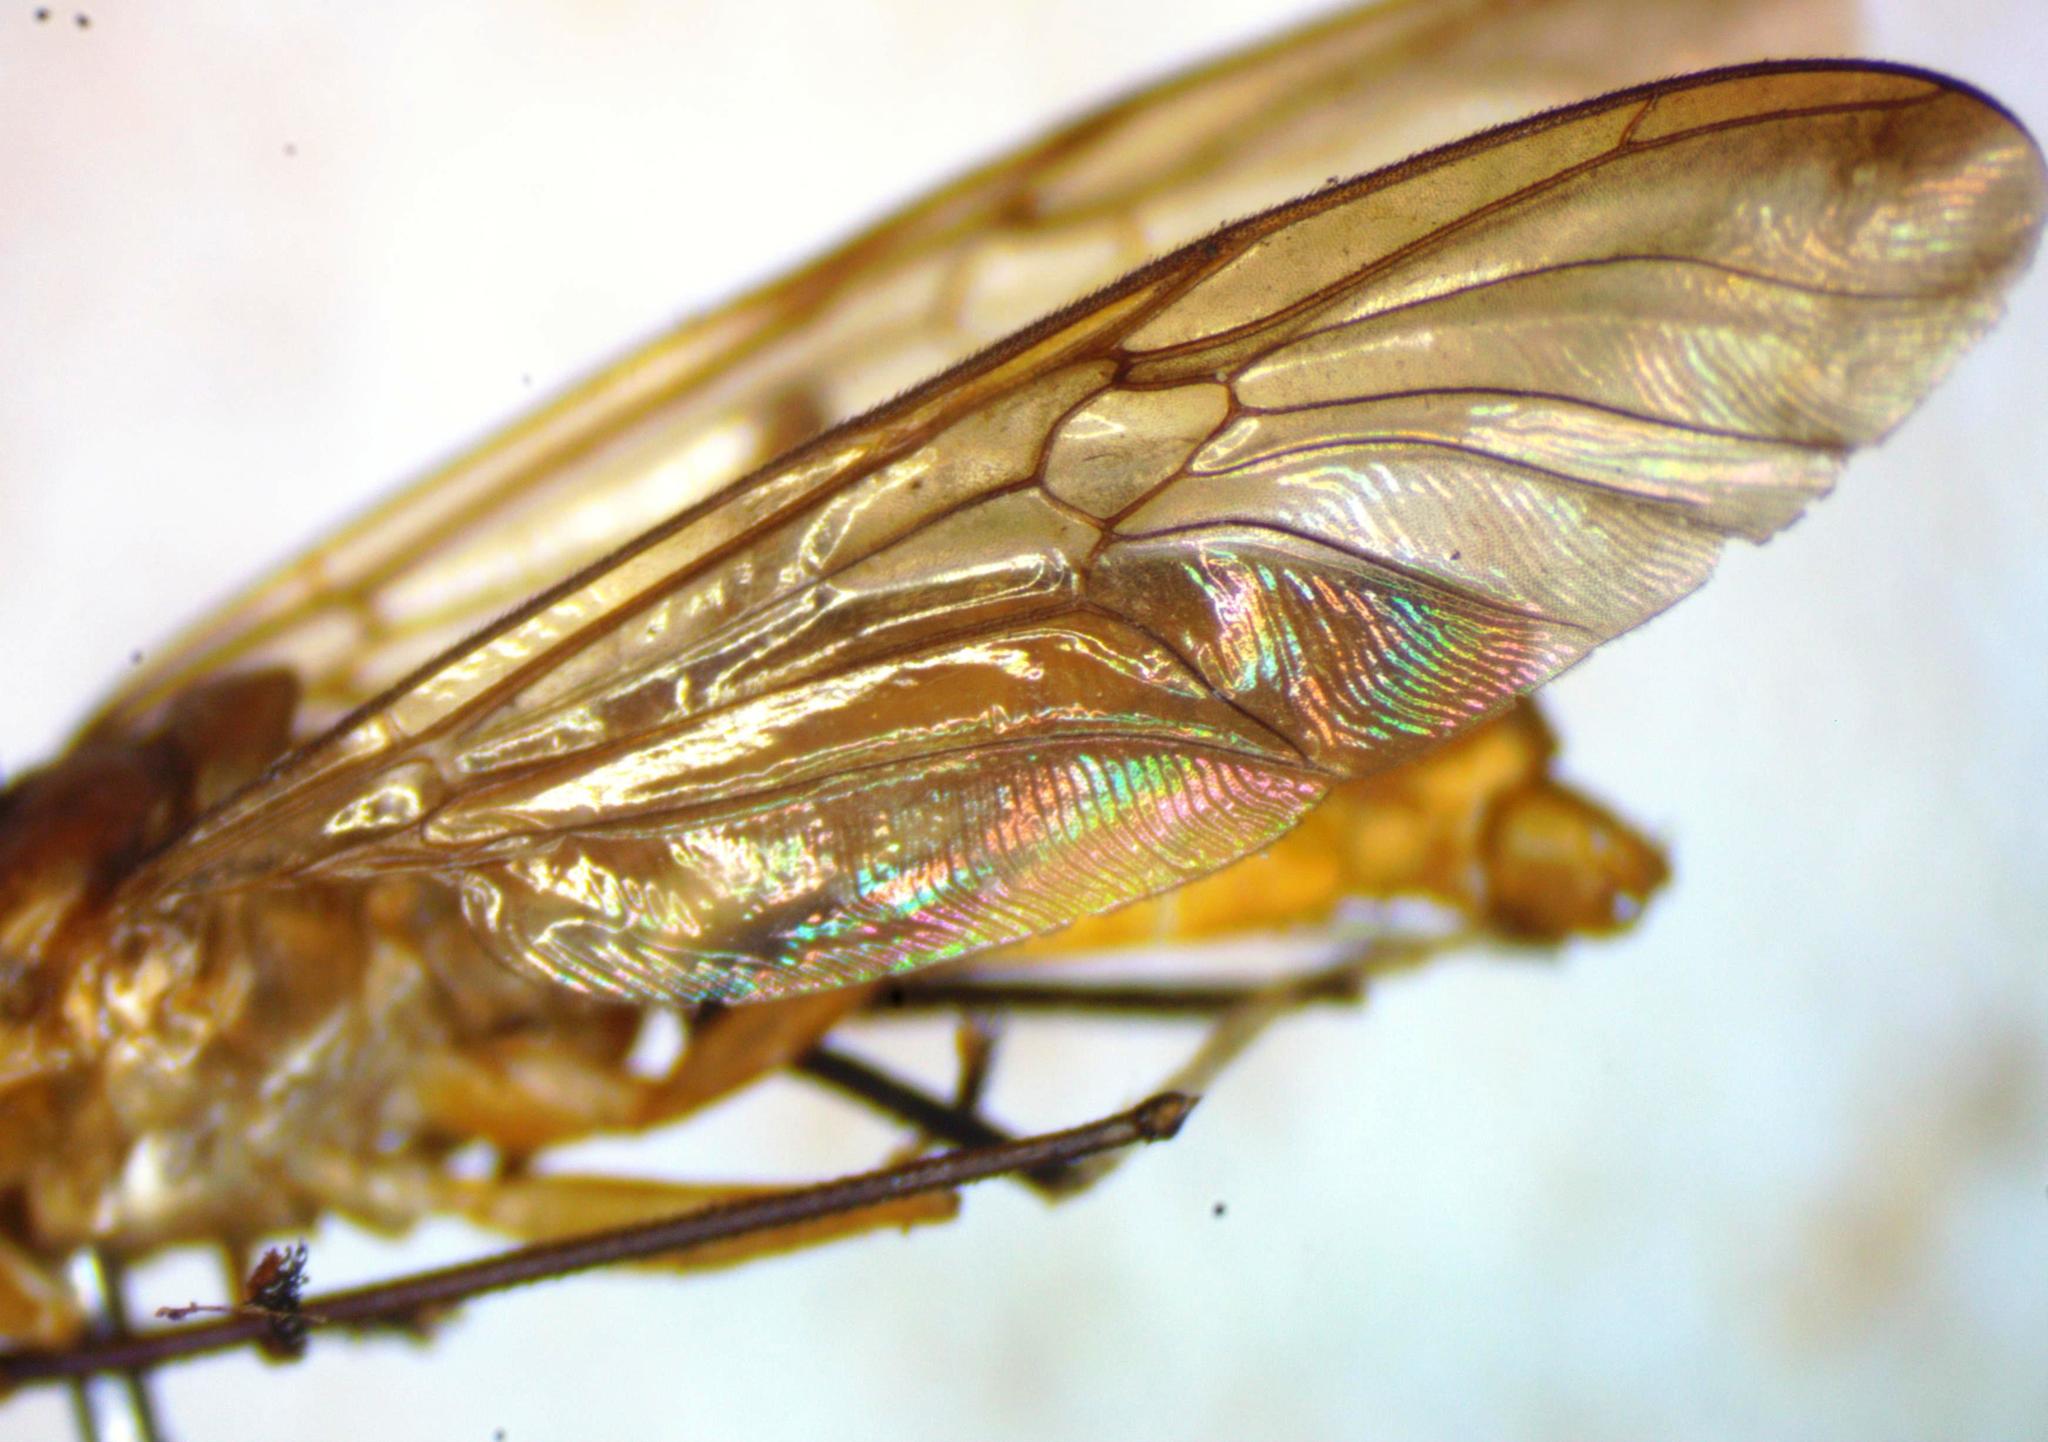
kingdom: Animalia
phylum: Arthropoda
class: Insecta
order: Diptera
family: Stratiomyidae
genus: Ptecticus
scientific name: Ptecticus nigrifrons
